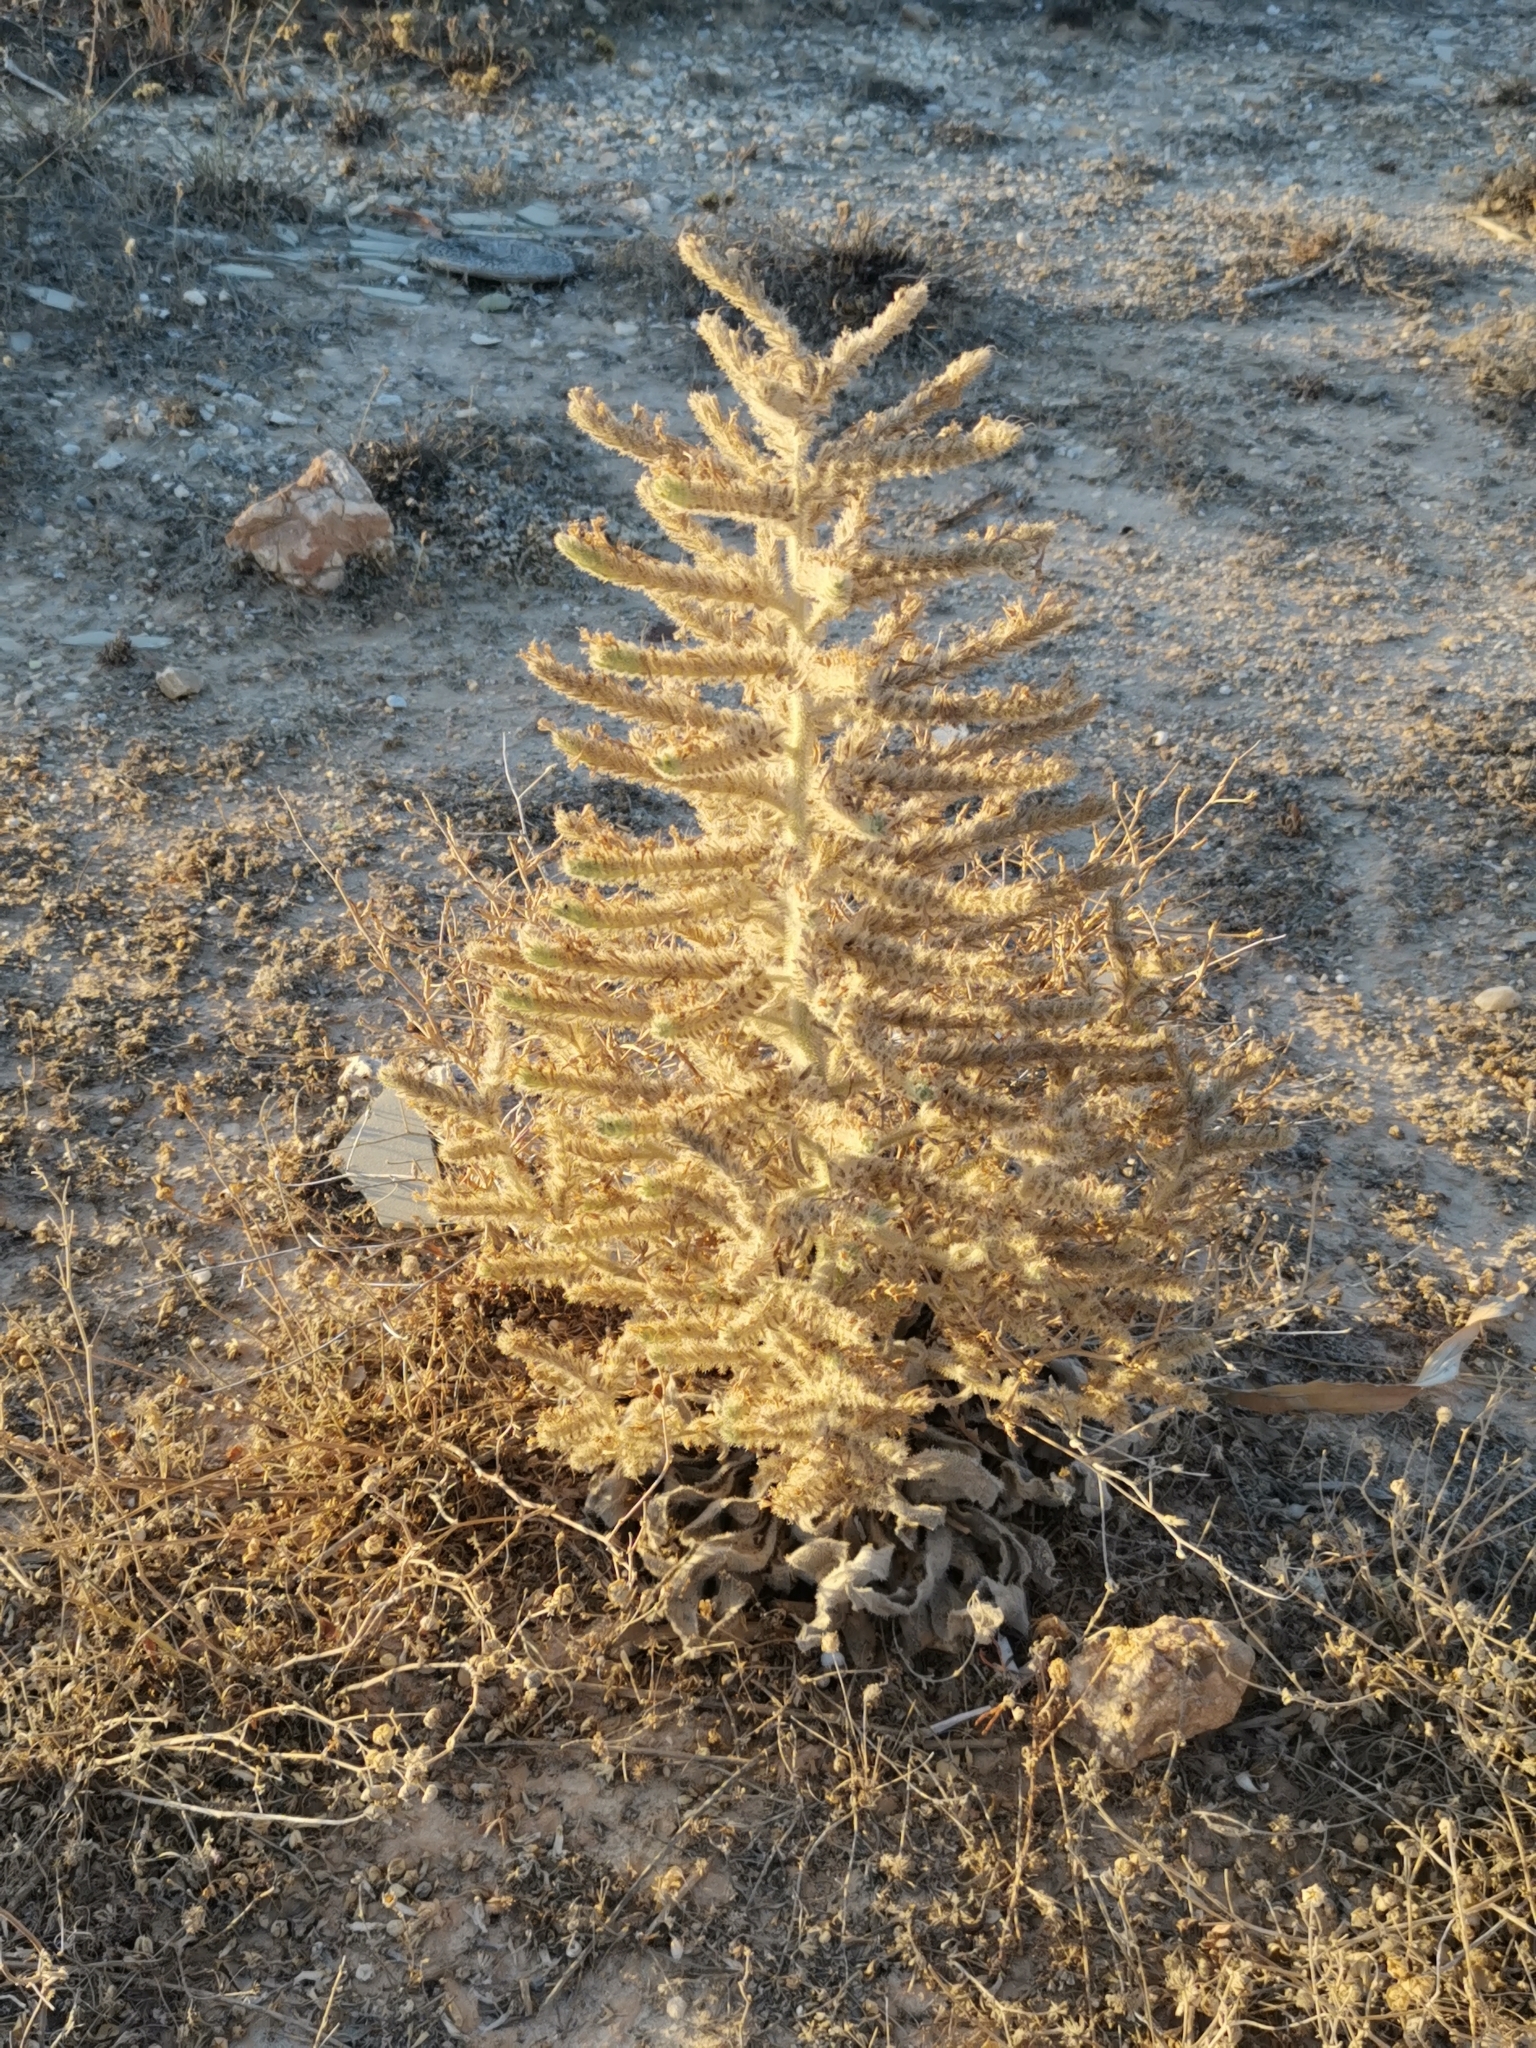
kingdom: Plantae
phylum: Tracheophyta
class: Magnoliopsida
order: Boraginales
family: Boraginaceae
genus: Echium
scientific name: Echium italicum
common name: Italian viper's bugloss
